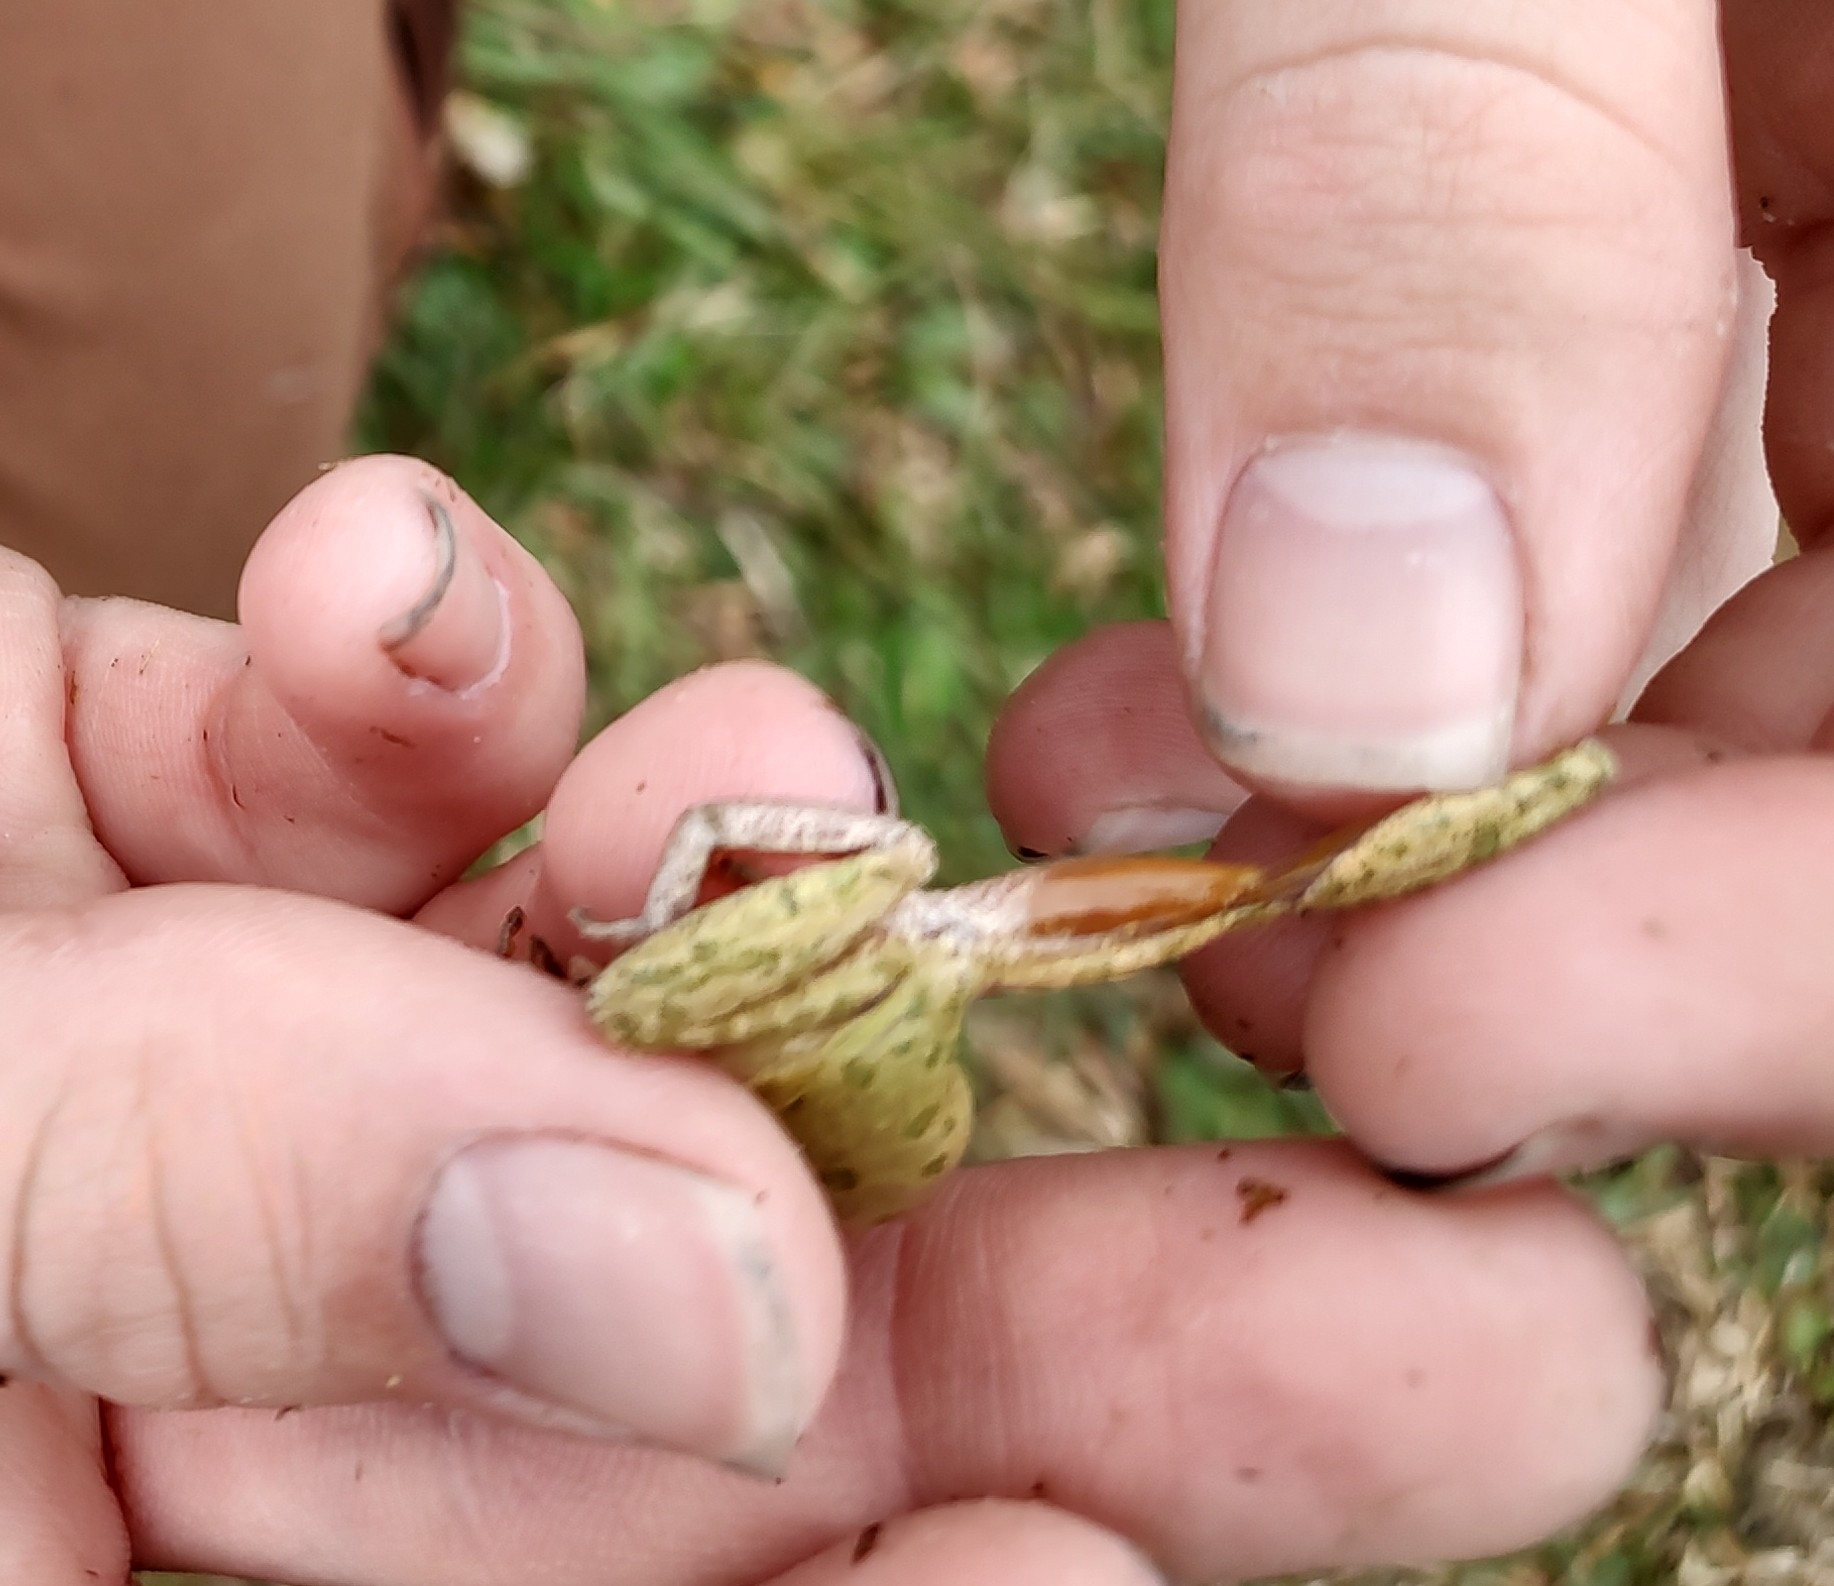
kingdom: Animalia
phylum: Chordata
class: Amphibia
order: Anura
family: Hylidae
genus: Dryophytes
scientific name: Dryophytes squirellus
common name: Squirrel treefrog
